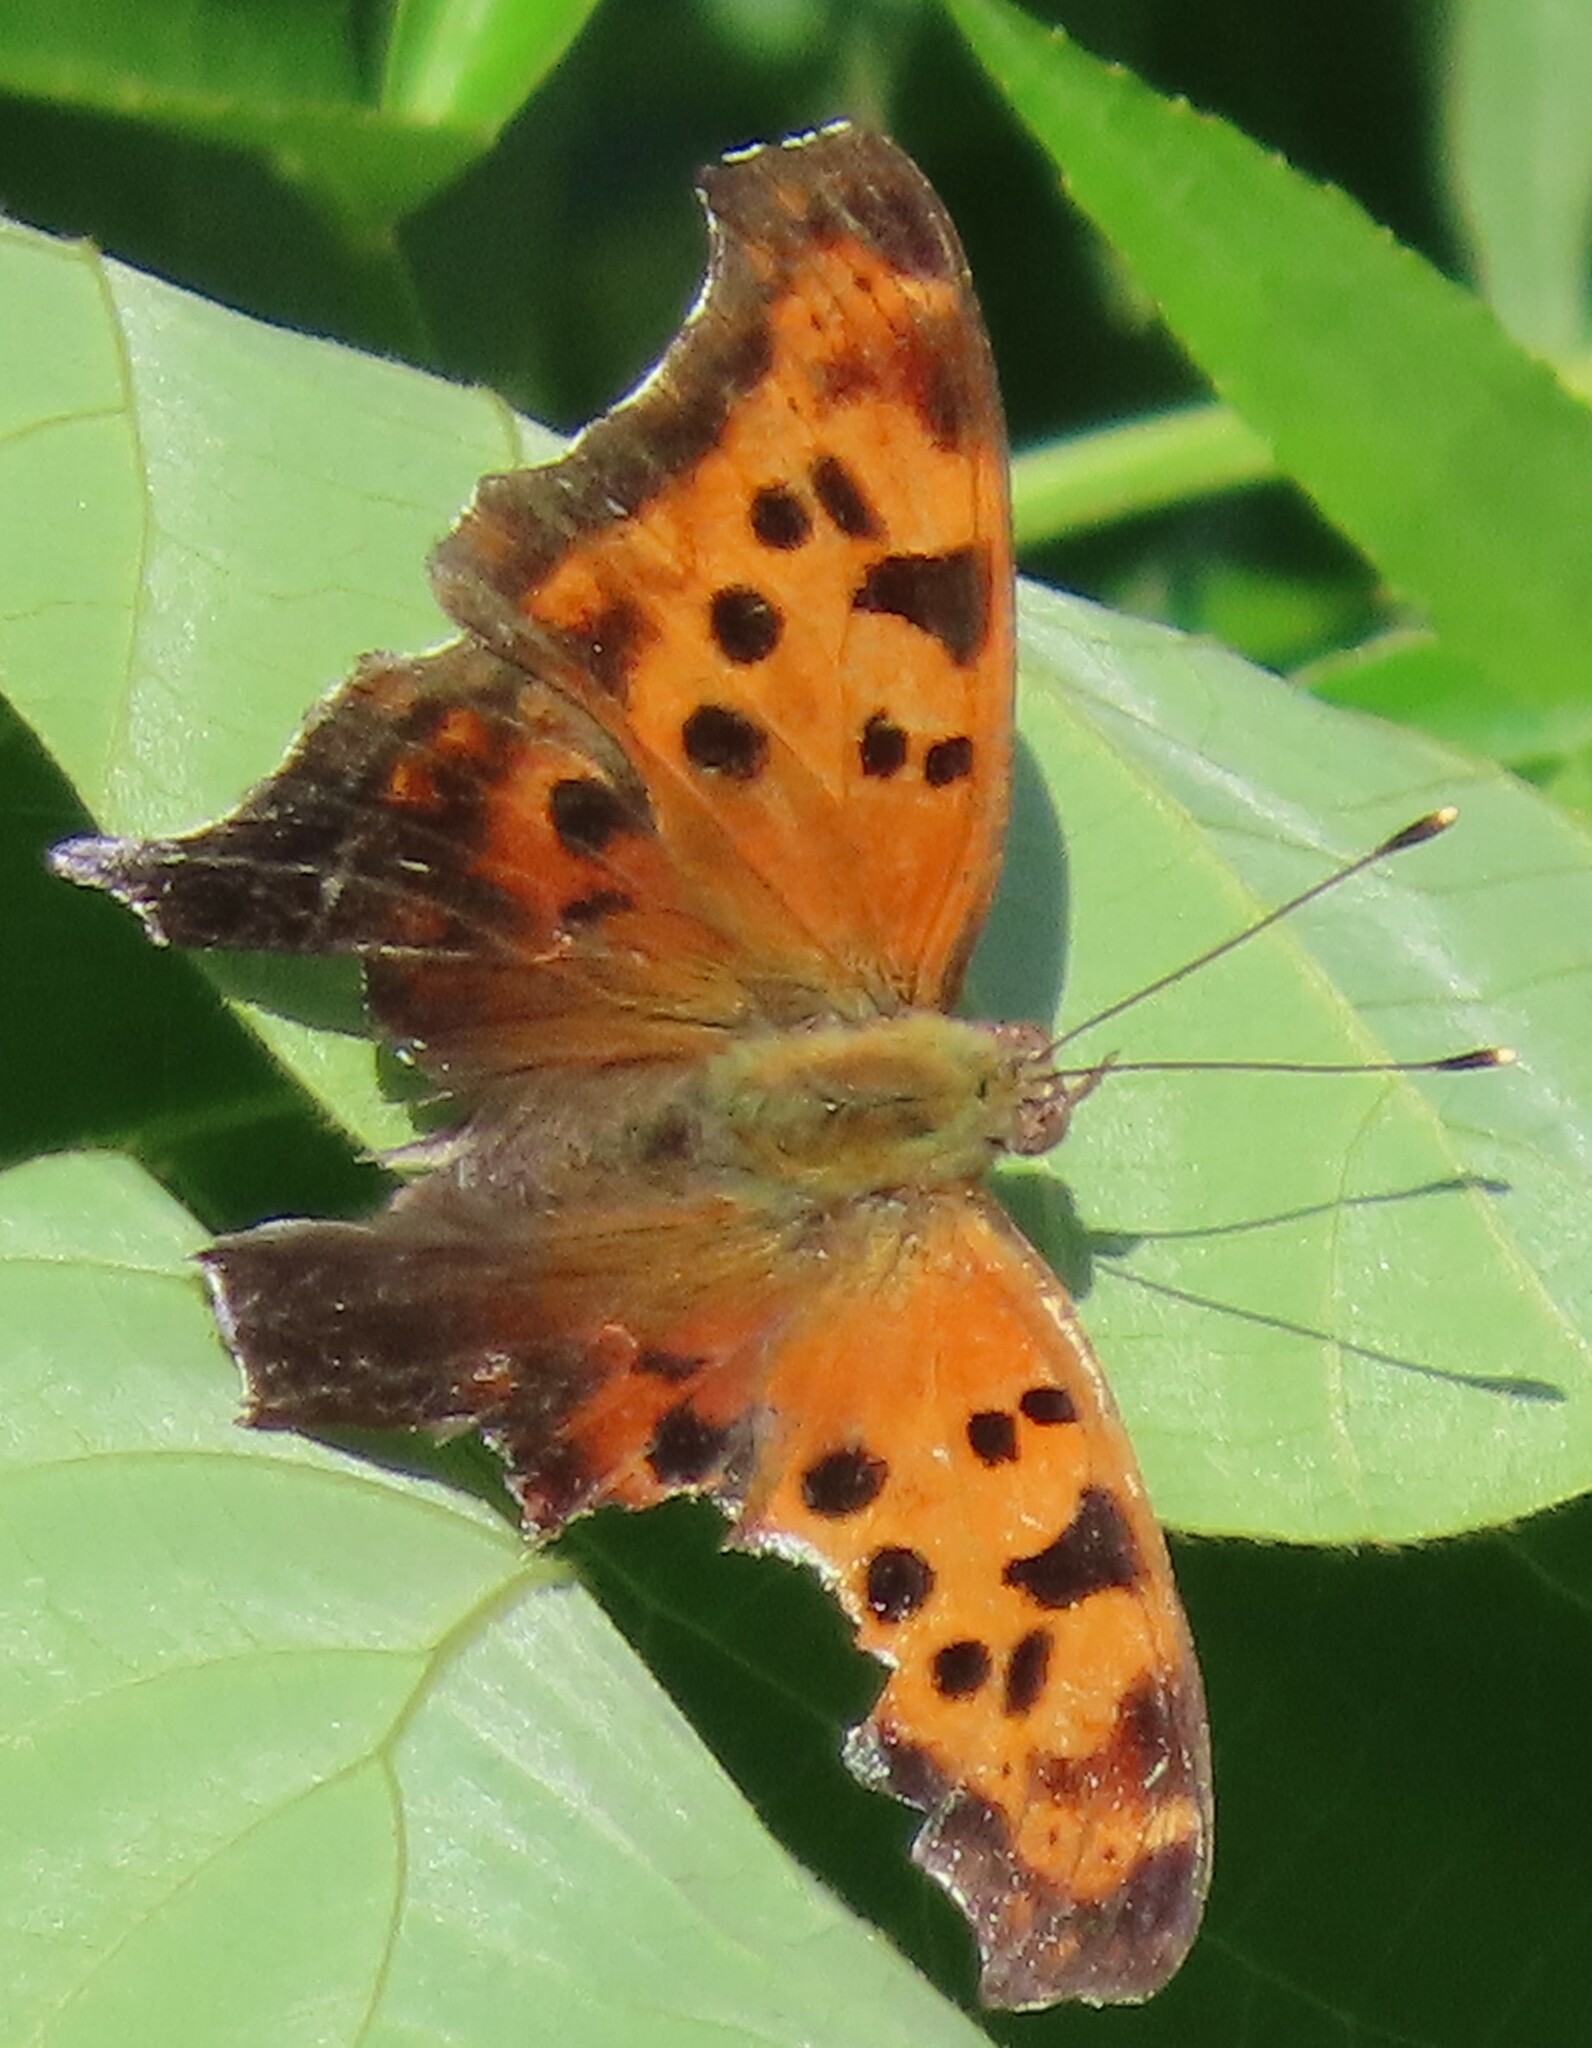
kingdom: Animalia
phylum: Arthropoda
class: Insecta
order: Lepidoptera
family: Nymphalidae
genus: Polygonia
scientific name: Polygonia interrogationis
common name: Question mark
